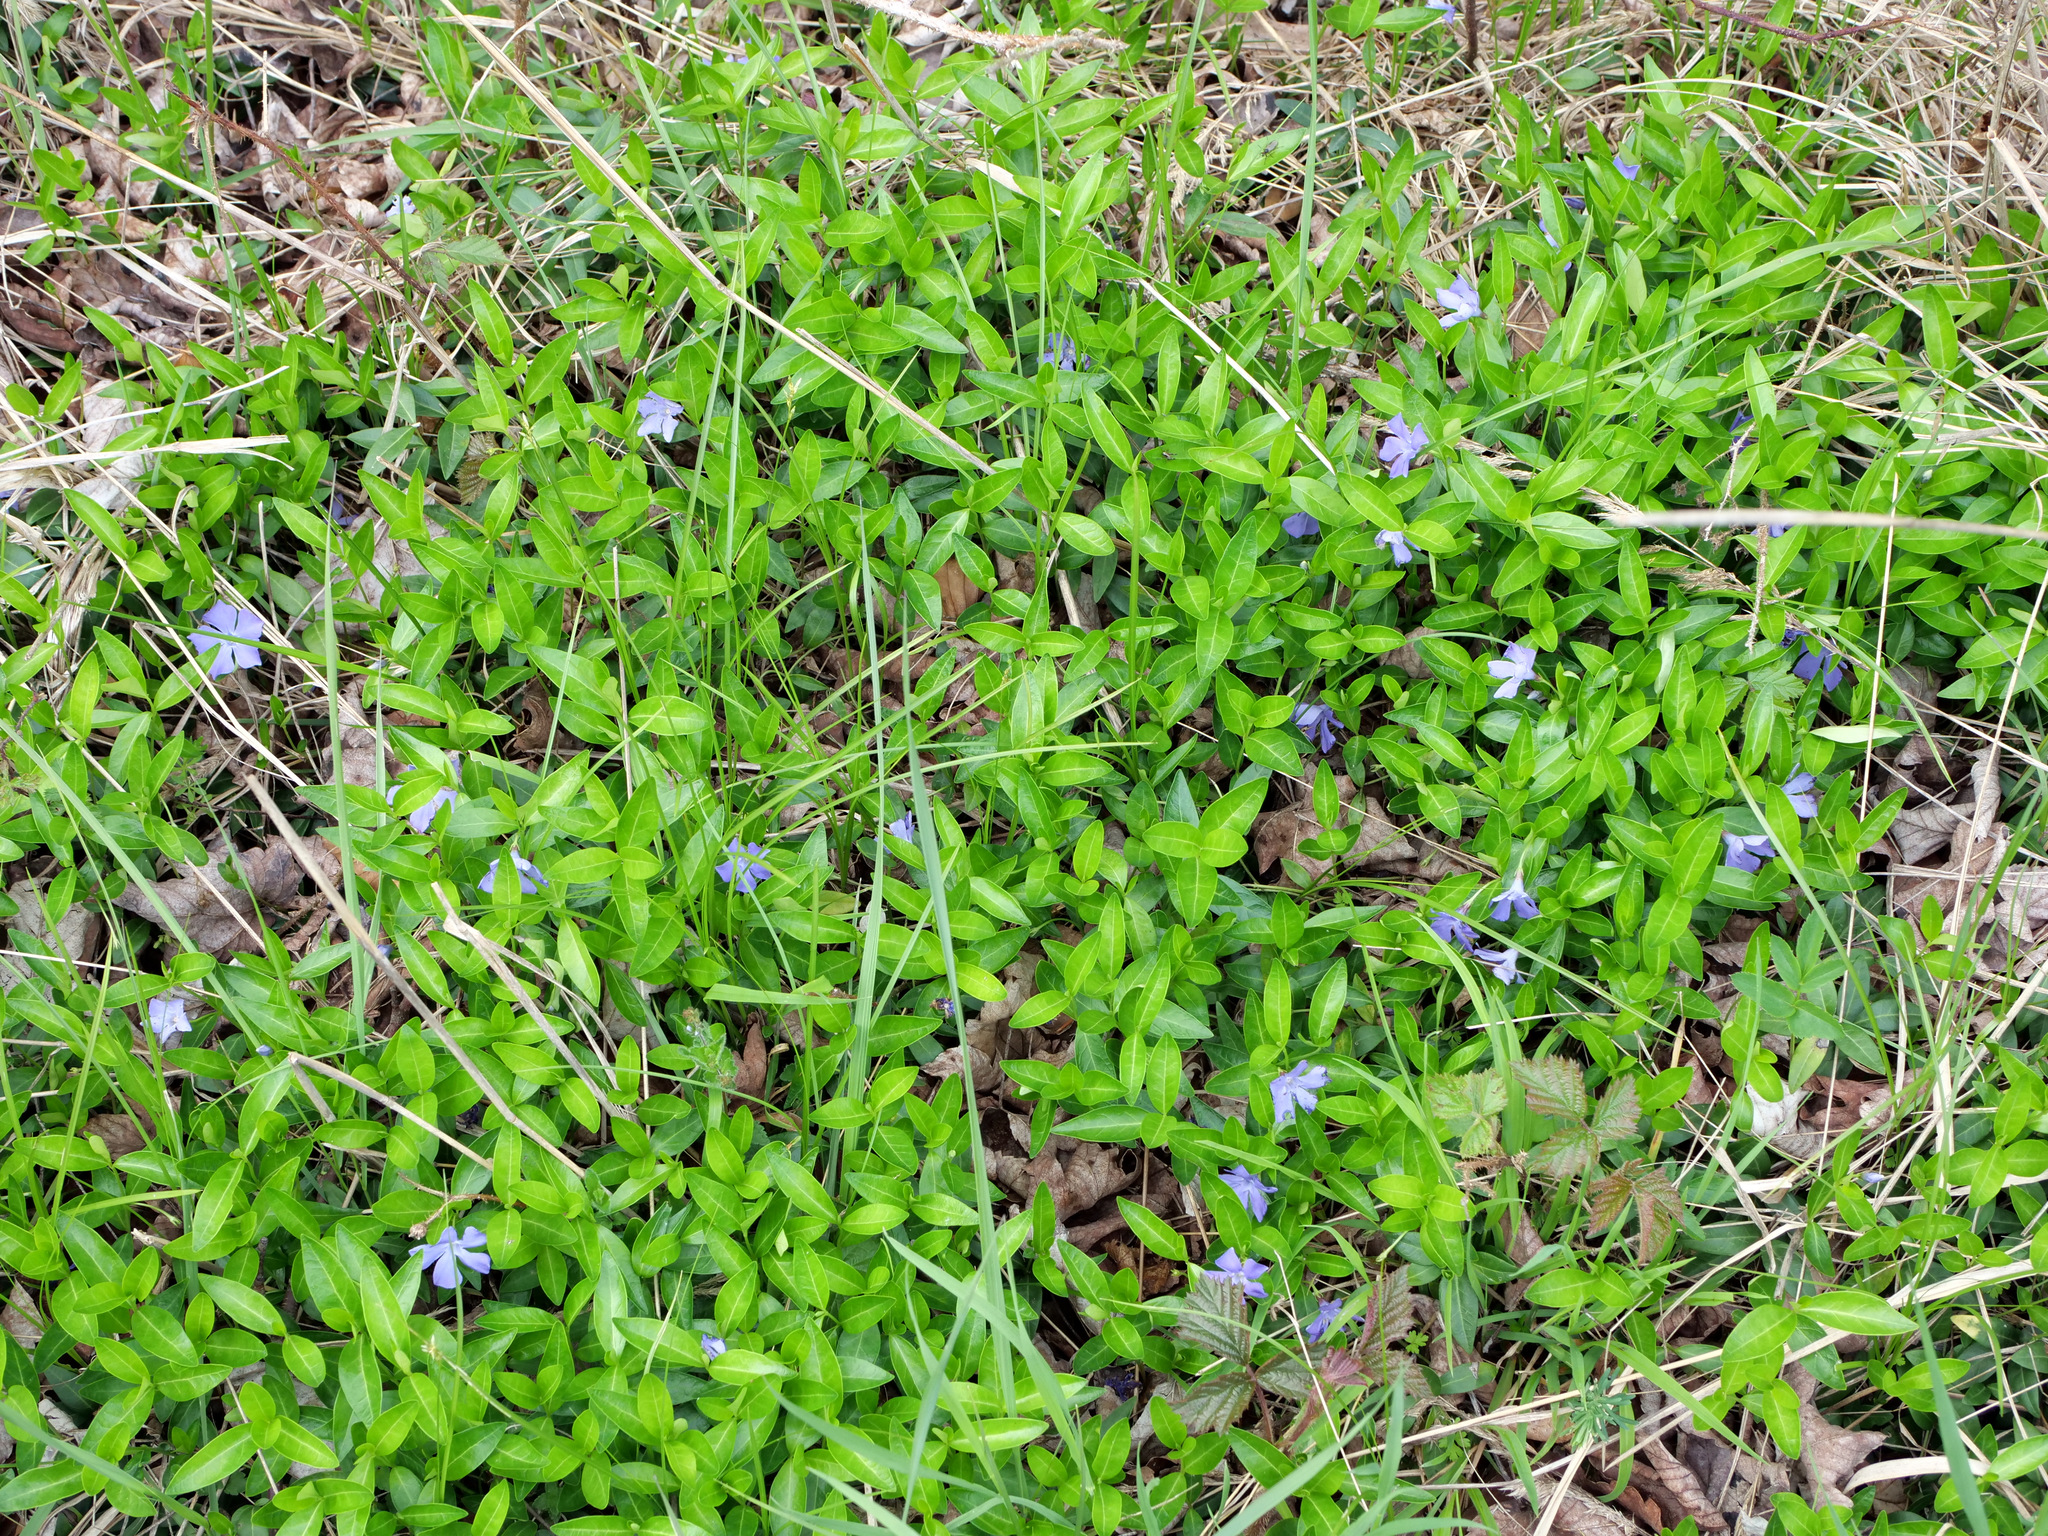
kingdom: Plantae
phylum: Tracheophyta
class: Magnoliopsida
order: Gentianales
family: Apocynaceae
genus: Vinca
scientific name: Vinca minor
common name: Lesser periwinkle
